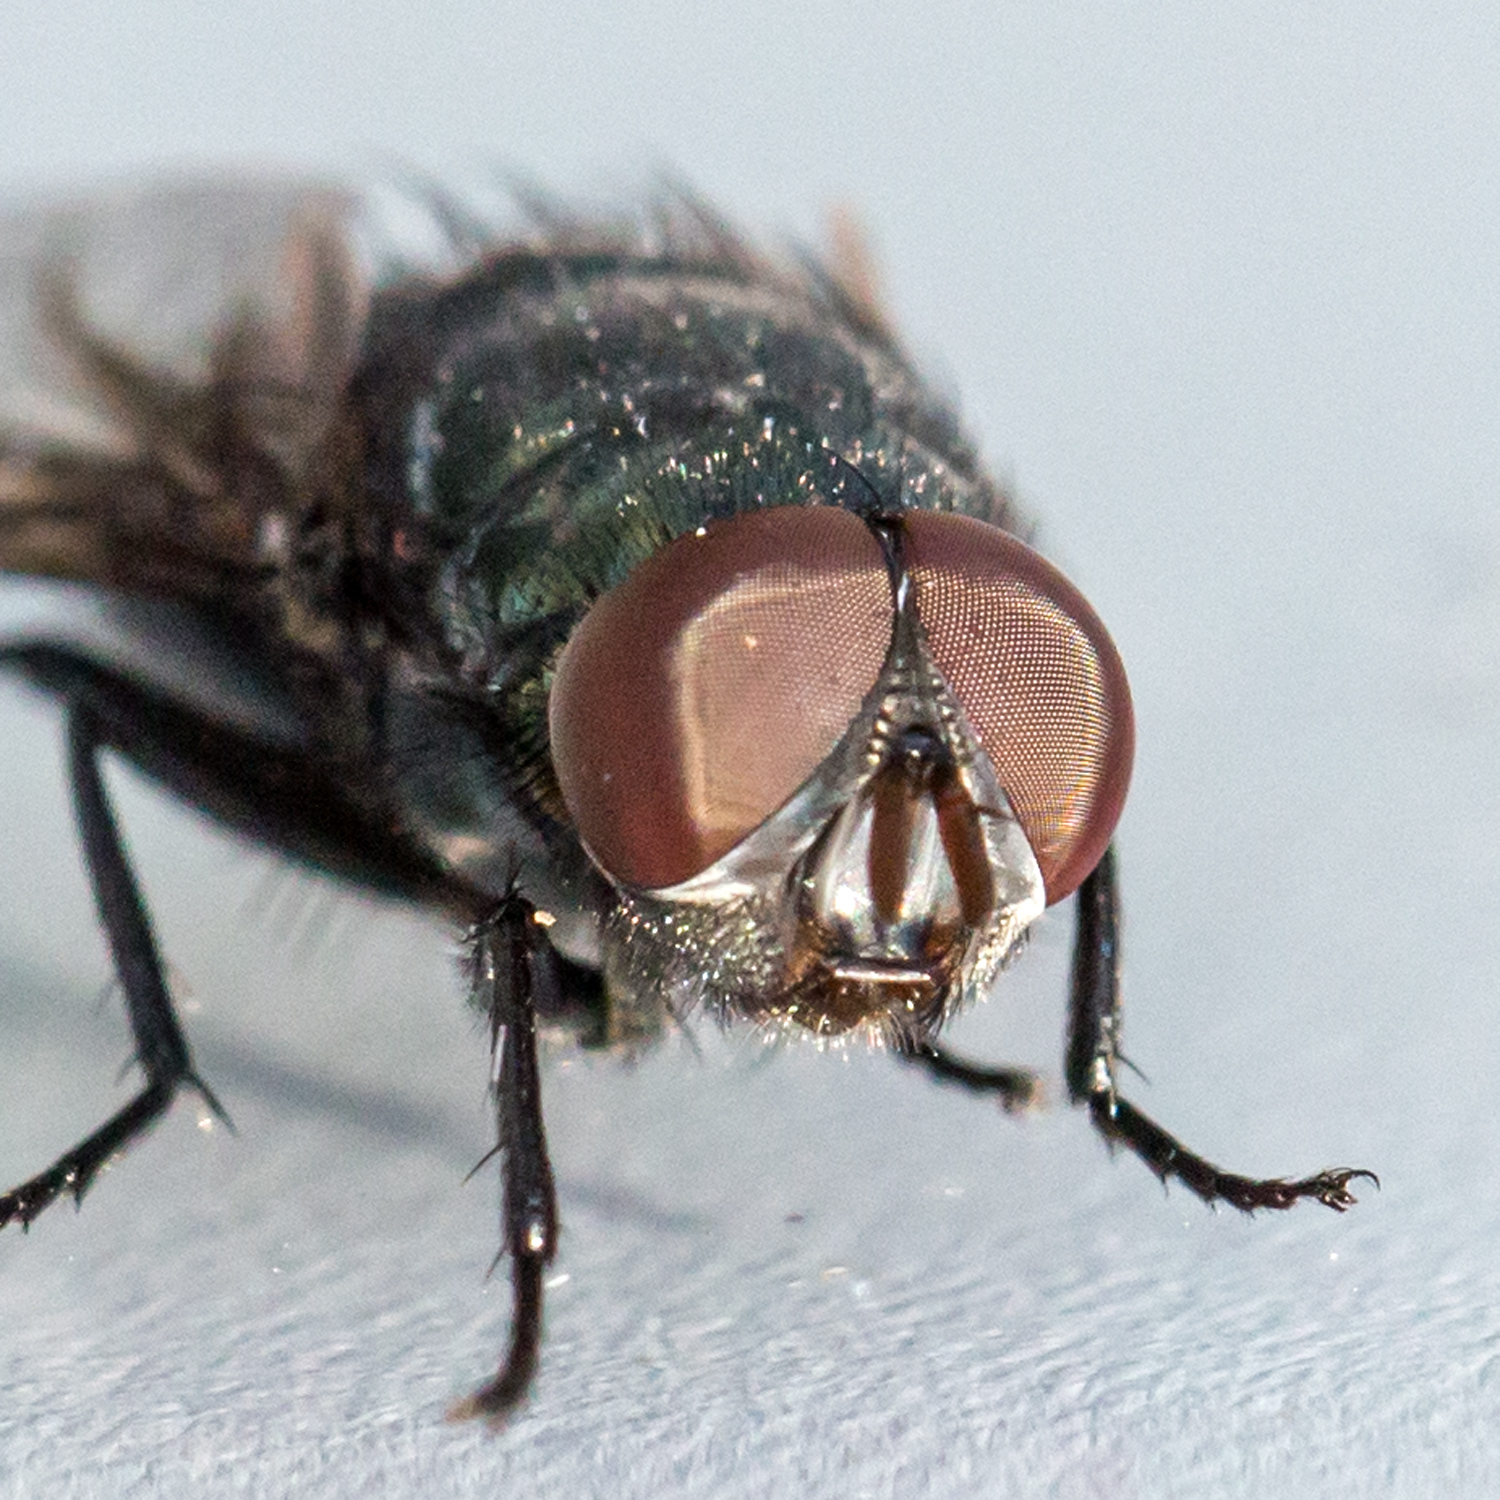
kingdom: Animalia
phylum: Arthropoda
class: Insecta
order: Diptera
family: Calliphoridae
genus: Phormia
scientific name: Phormia regina
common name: Black blow fly
